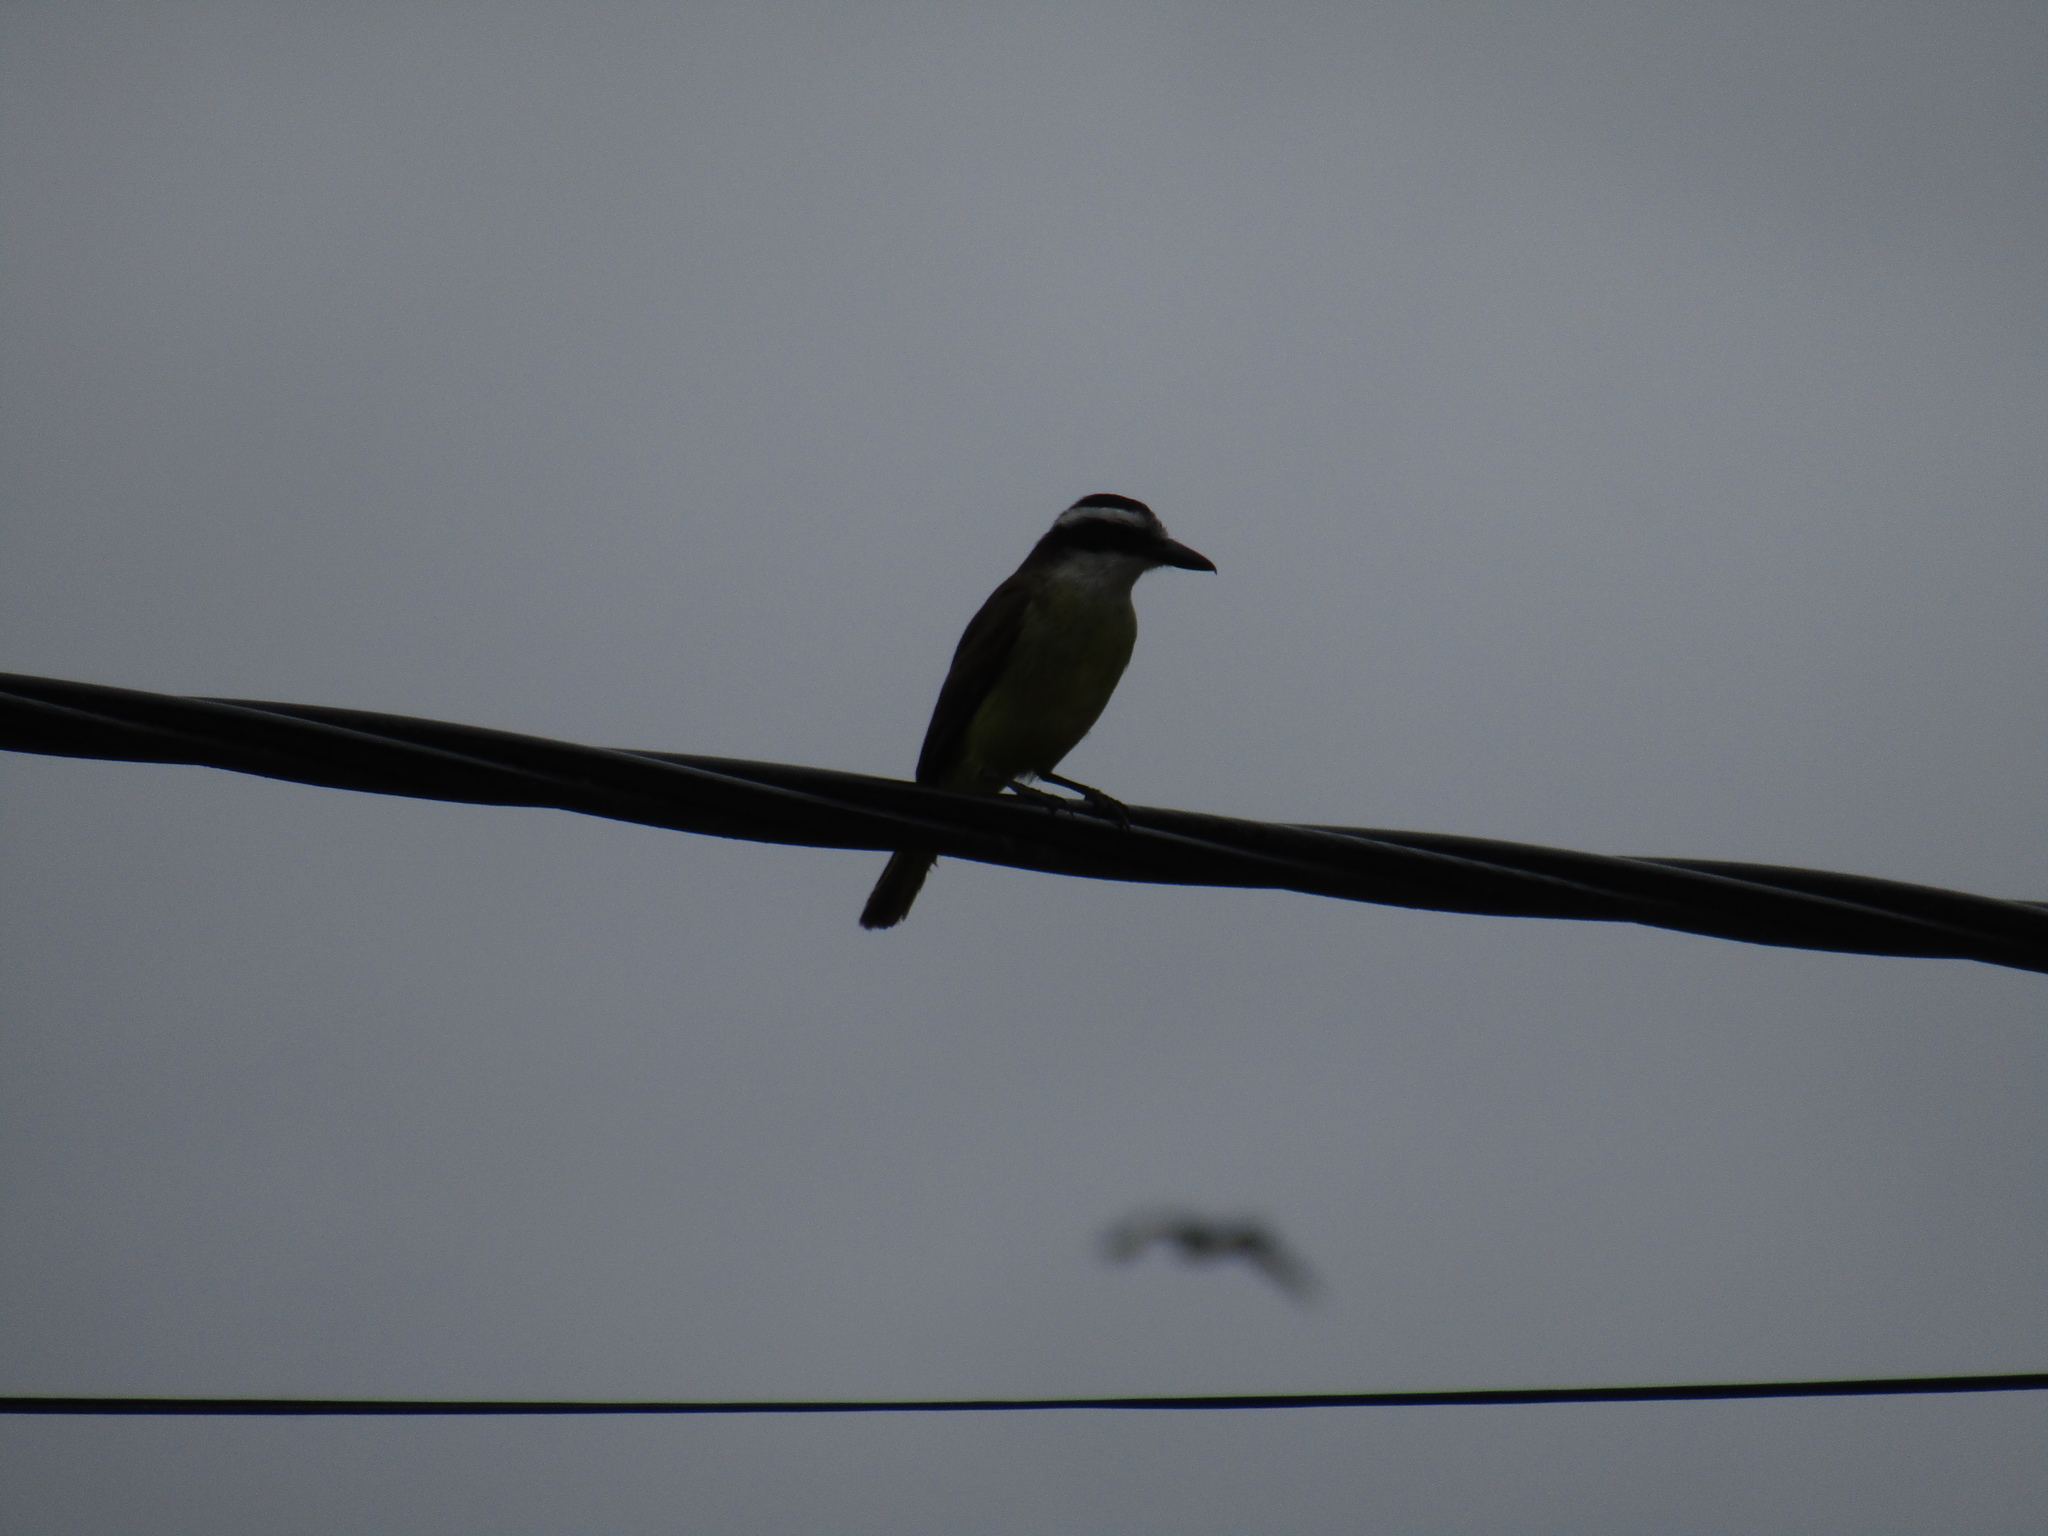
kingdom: Animalia
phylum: Chordata
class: Aves
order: Passeriformes
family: Tyrannidae
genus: Pitangus
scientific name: Pitangus sulphuratus
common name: Great kiskadee
